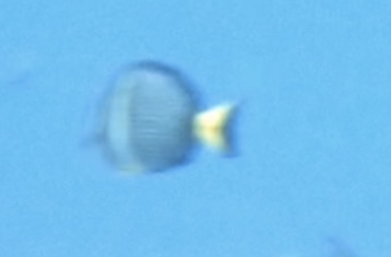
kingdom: Animalia
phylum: Chordata
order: Perciformes
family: Acanthuridae
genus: Acanthurus
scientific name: Acanthurus guttatus
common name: Whitespotted surgeonfish
